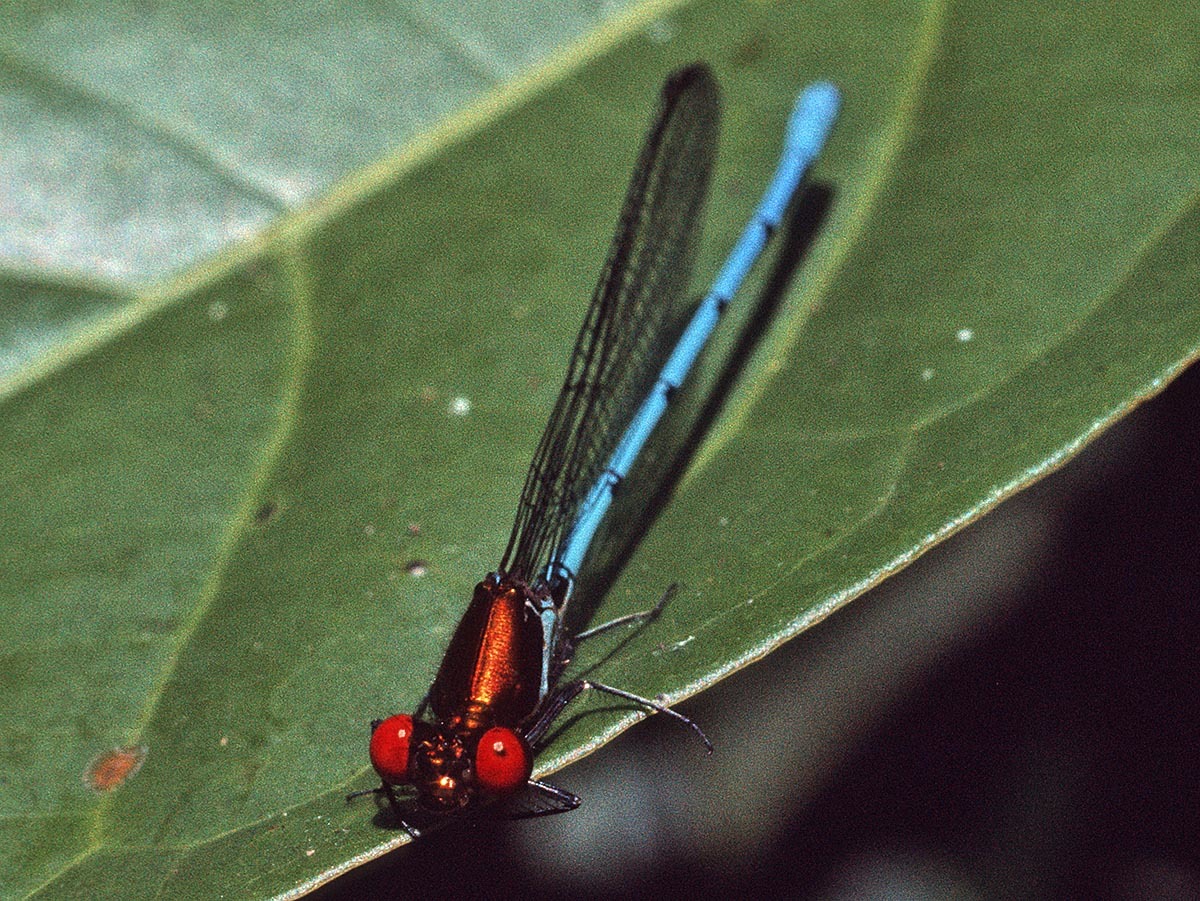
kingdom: Animalia
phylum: Arthropoda
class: Insecta
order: Odonata
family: Coenagrionidae
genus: Argia
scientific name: Argia calverti
